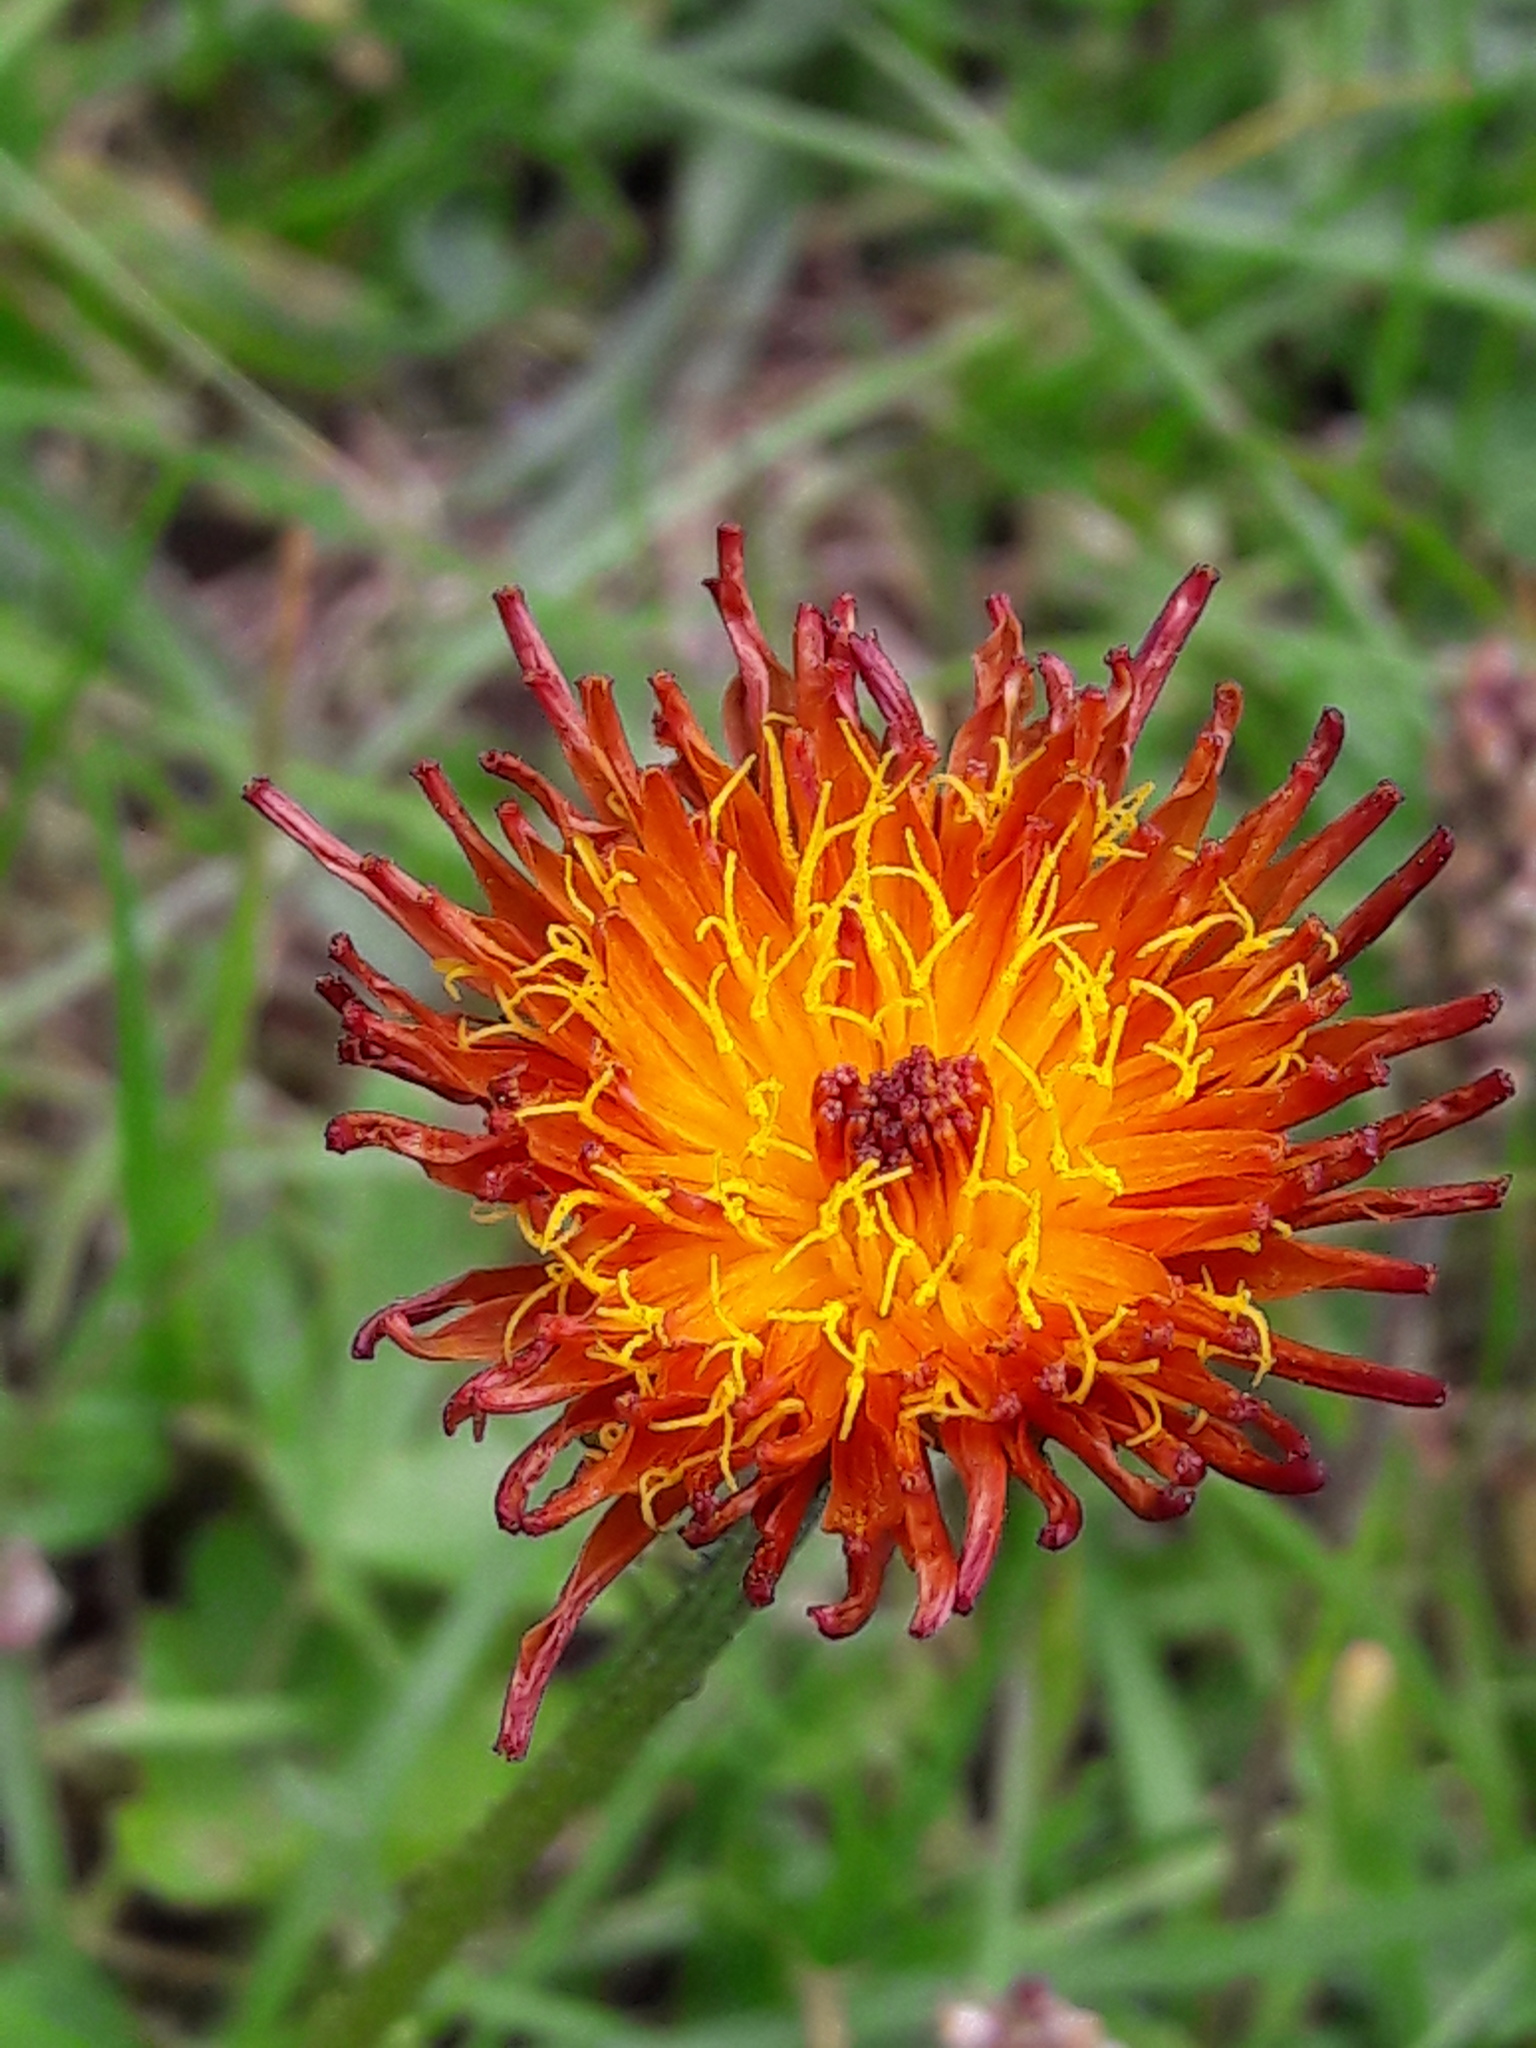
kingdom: Plantae
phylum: Tracheophyta
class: Magnoliopsida
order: Asterales
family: Asteraceae
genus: Crepis
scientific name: Crepis aurea
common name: Golden hawk's-beard
